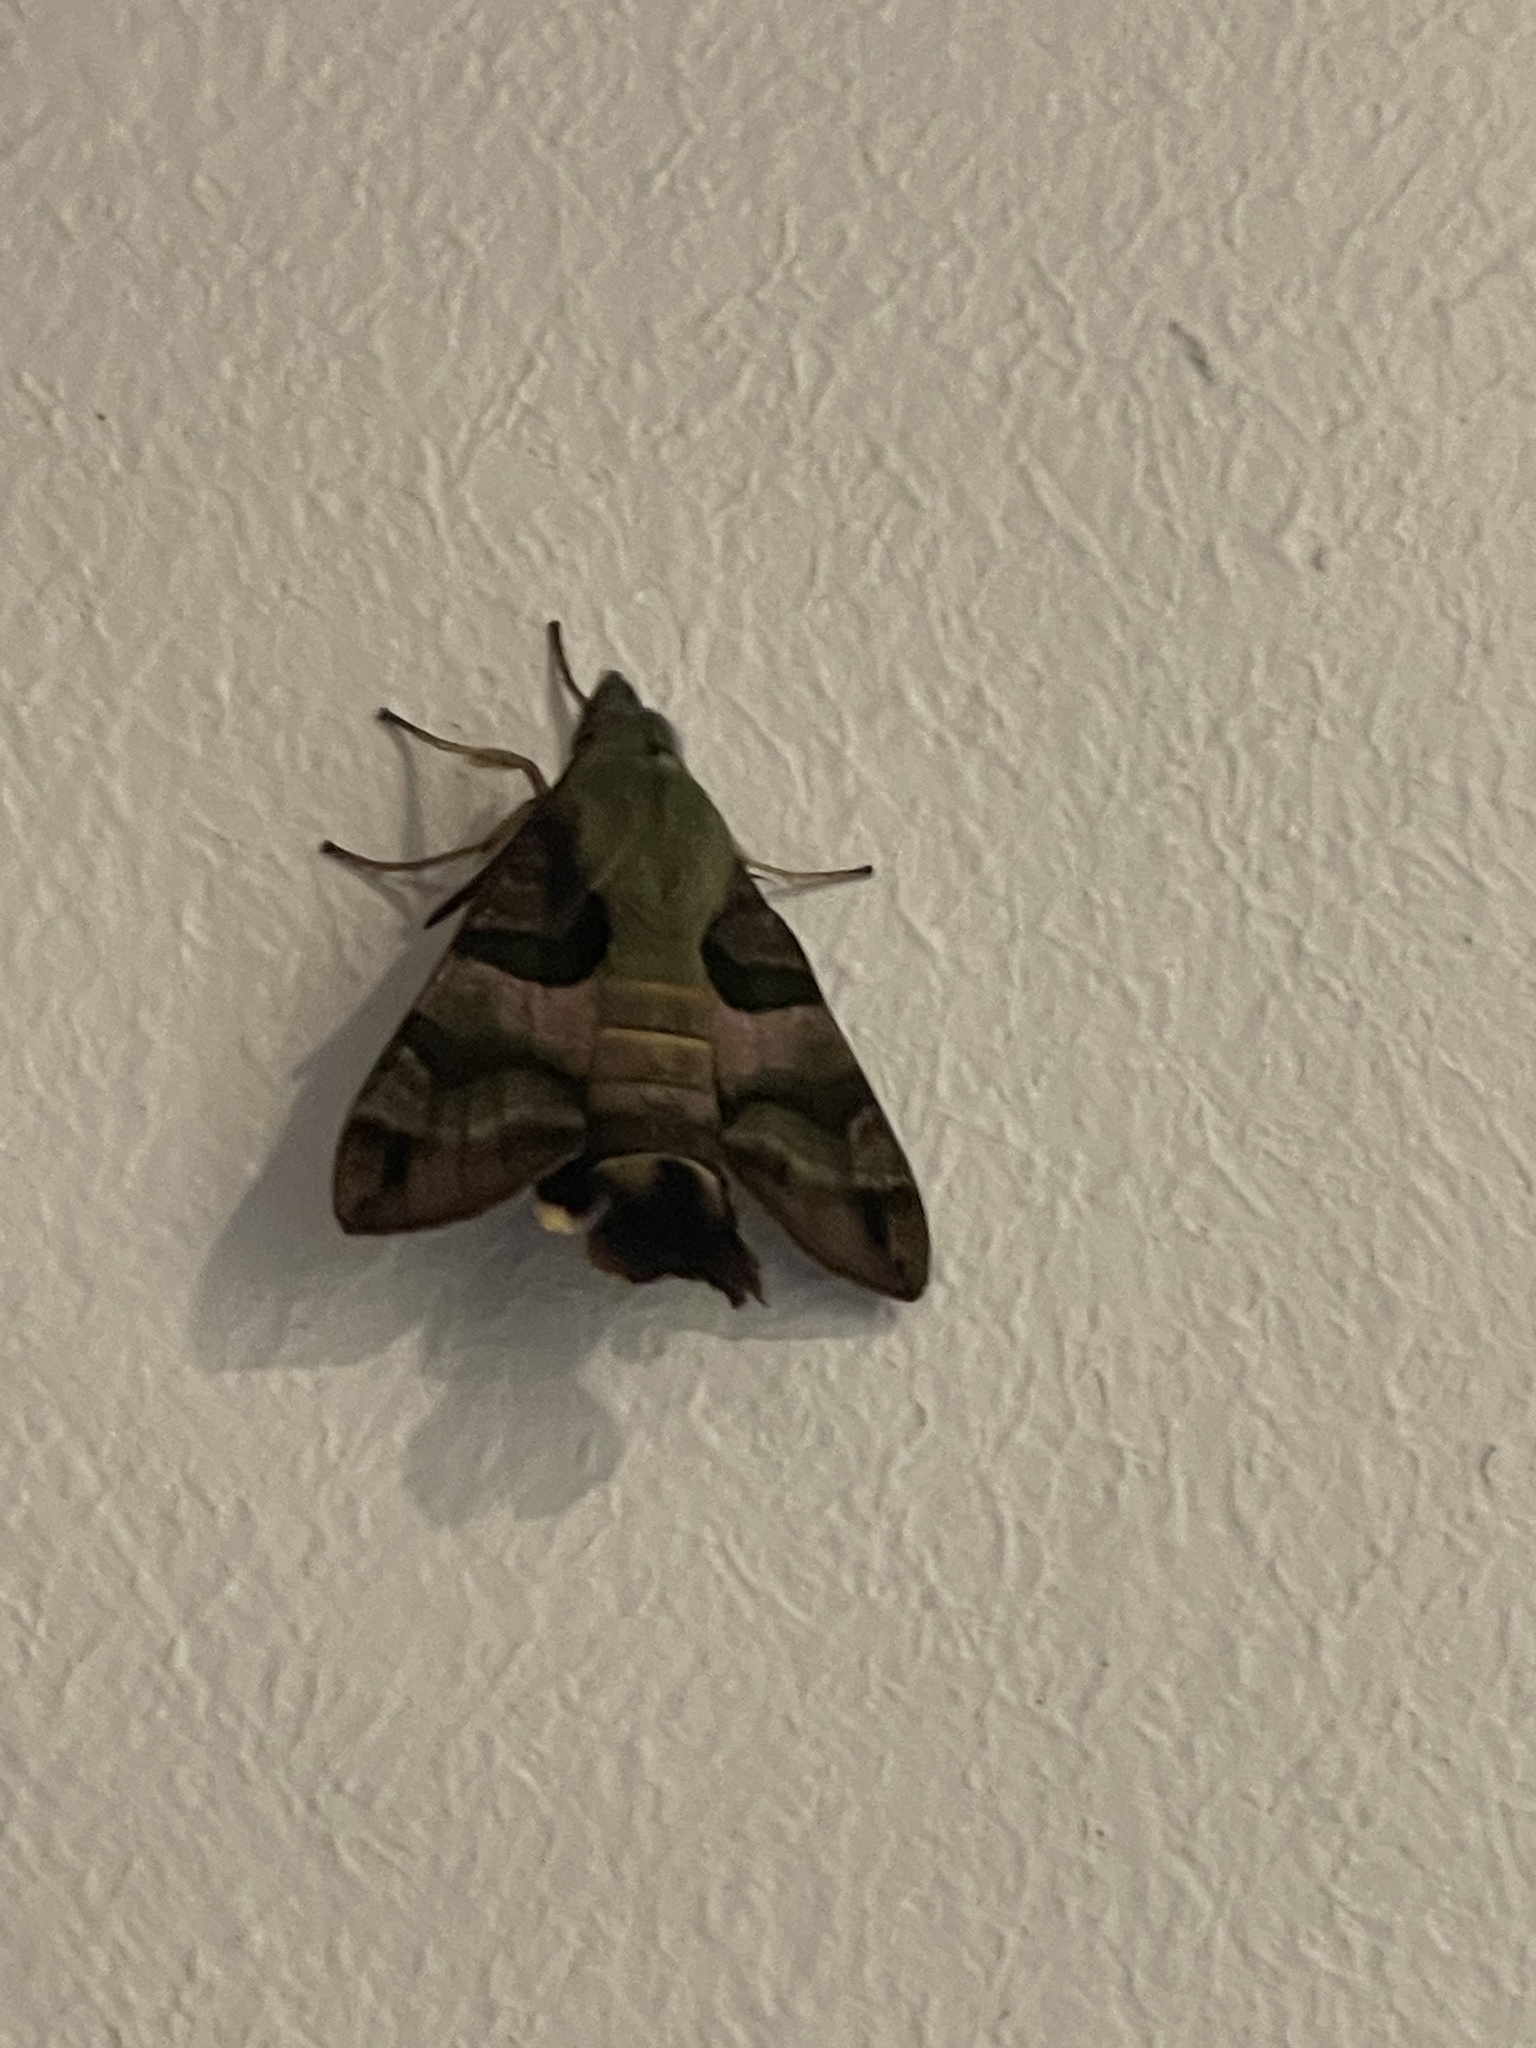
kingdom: Animalia
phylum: Arthropoda
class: Insecta
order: Lepidoptera
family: Sphingidae
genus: Macroglossum
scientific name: Macroglossum trochilus
